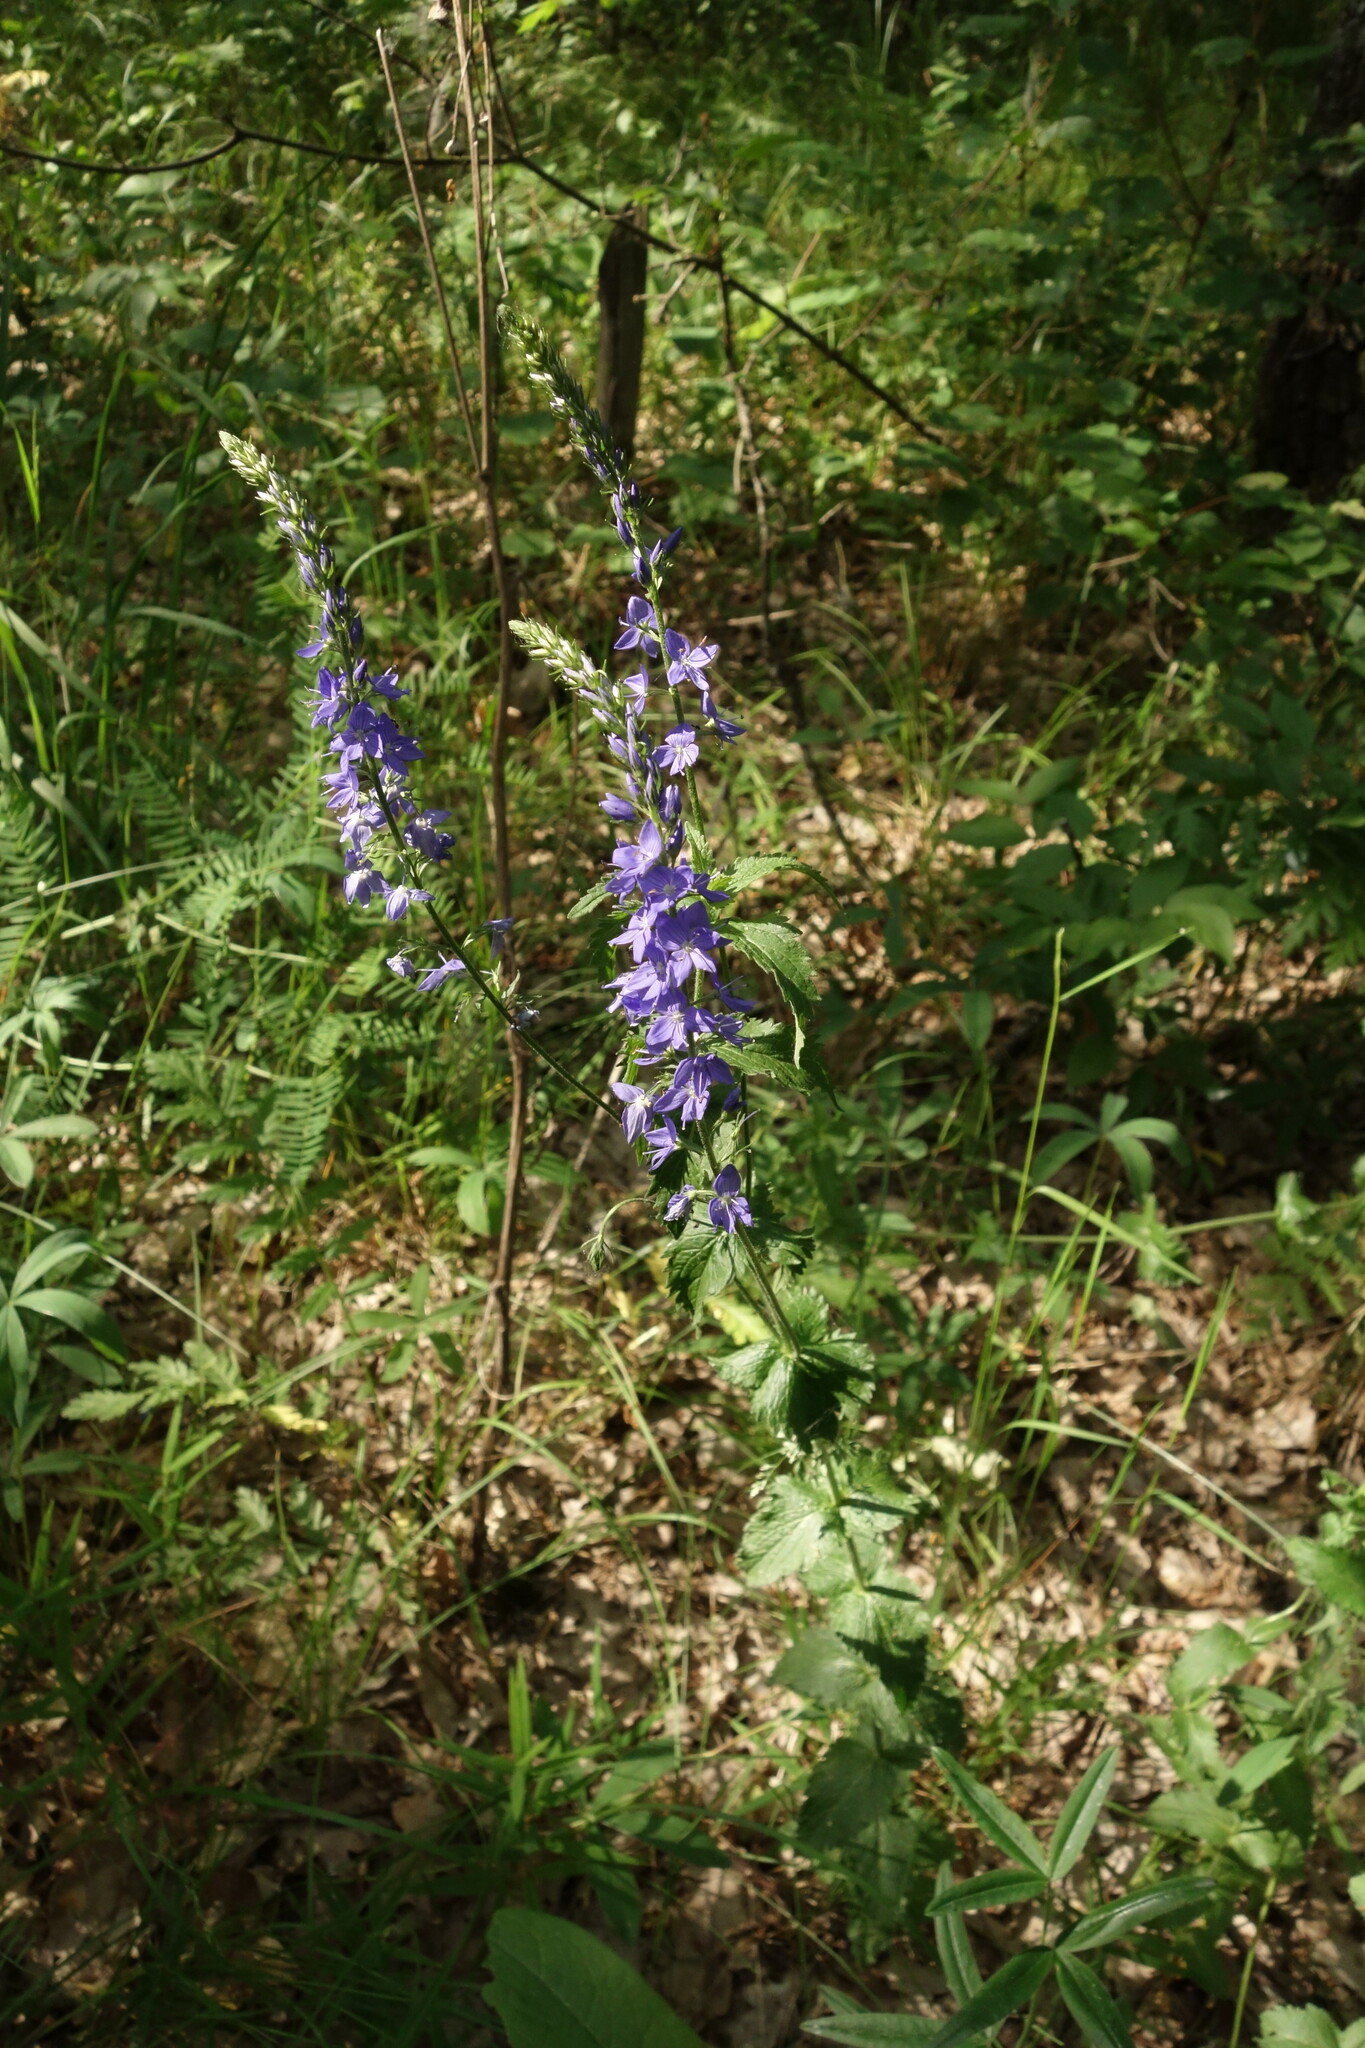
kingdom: Plantae
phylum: Tracheophyta
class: Magnoliopsida
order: Lamiales
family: Plantaginaceae
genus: Veronica
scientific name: Veronica teucrium
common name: Large speedwell
